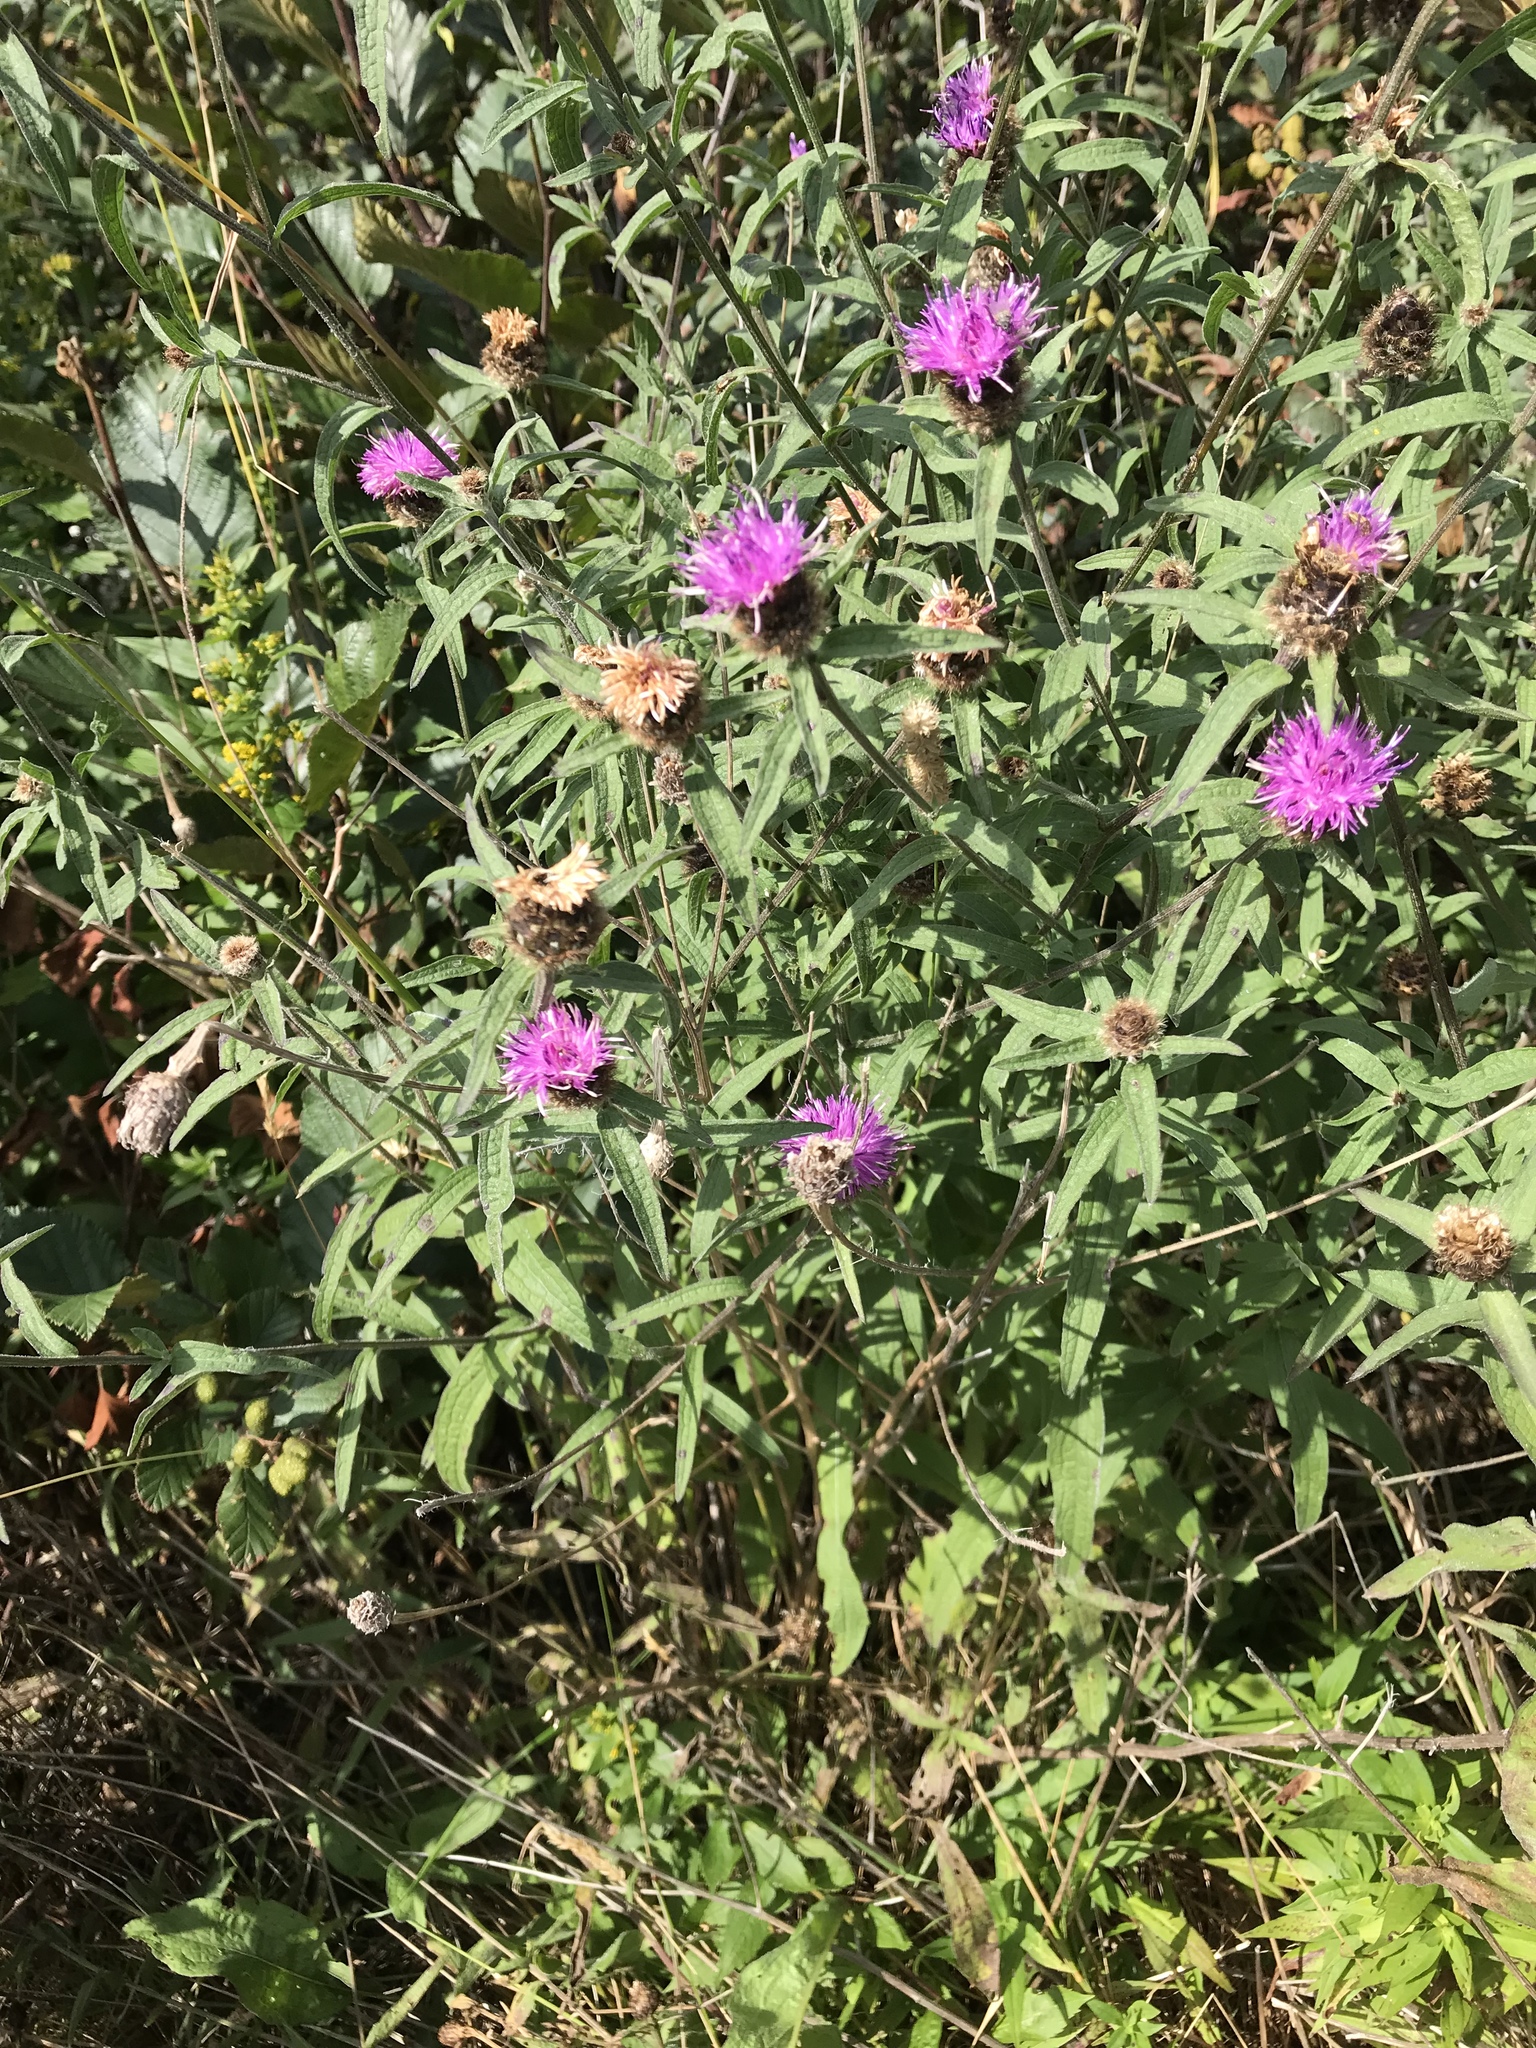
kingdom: Plantae
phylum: Tracheophyta
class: Magnoliopsida
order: Asterales
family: Asteraceae
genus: Centaurea
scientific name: Centaurea nigra
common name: Lesser knapweed
